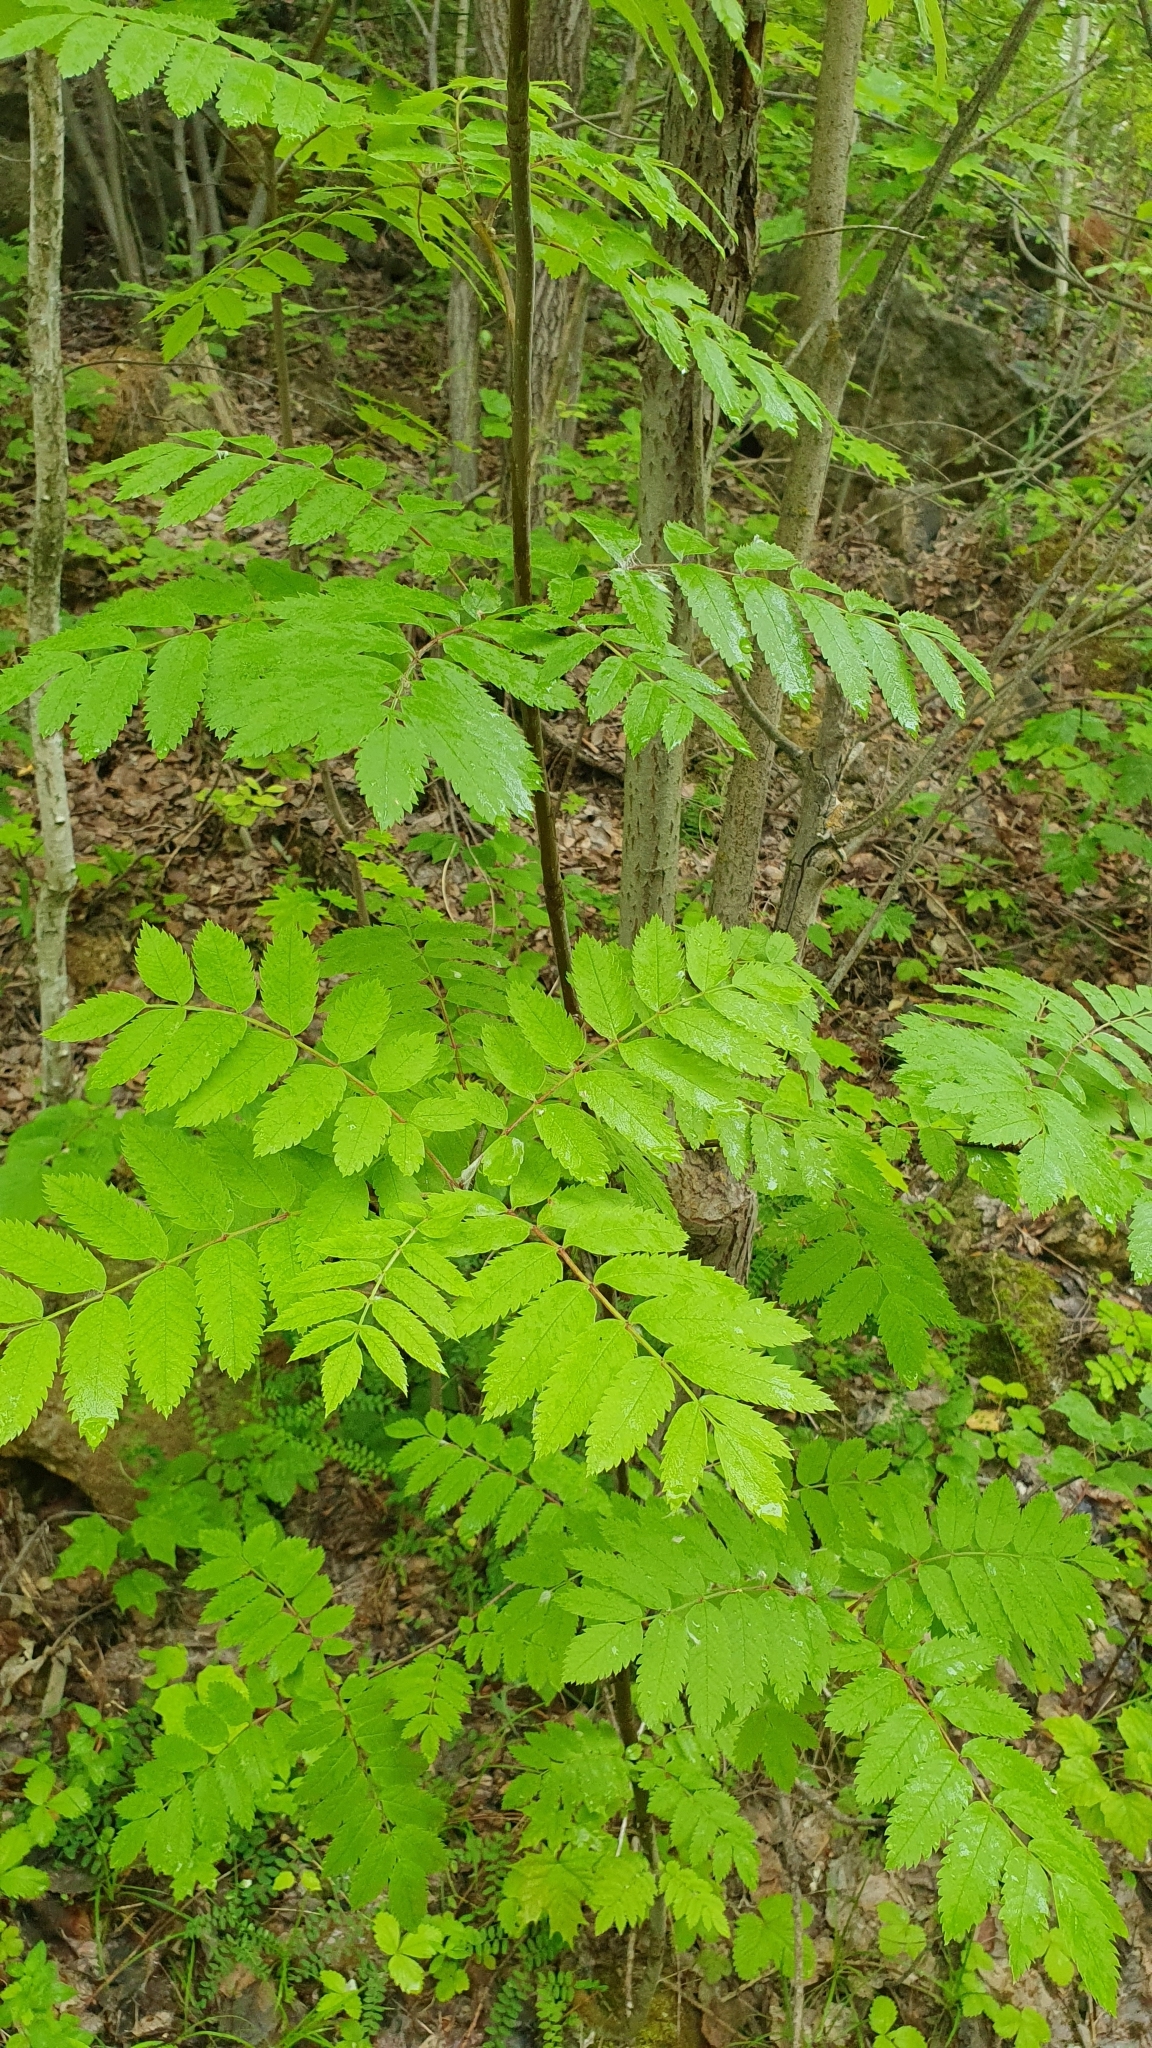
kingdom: Plantae
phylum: Tracheophyta
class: Magnoliopsida
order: Rosales
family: Rosaceae
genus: Sorbus
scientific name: Sorbus aucuparia
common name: Rowan
